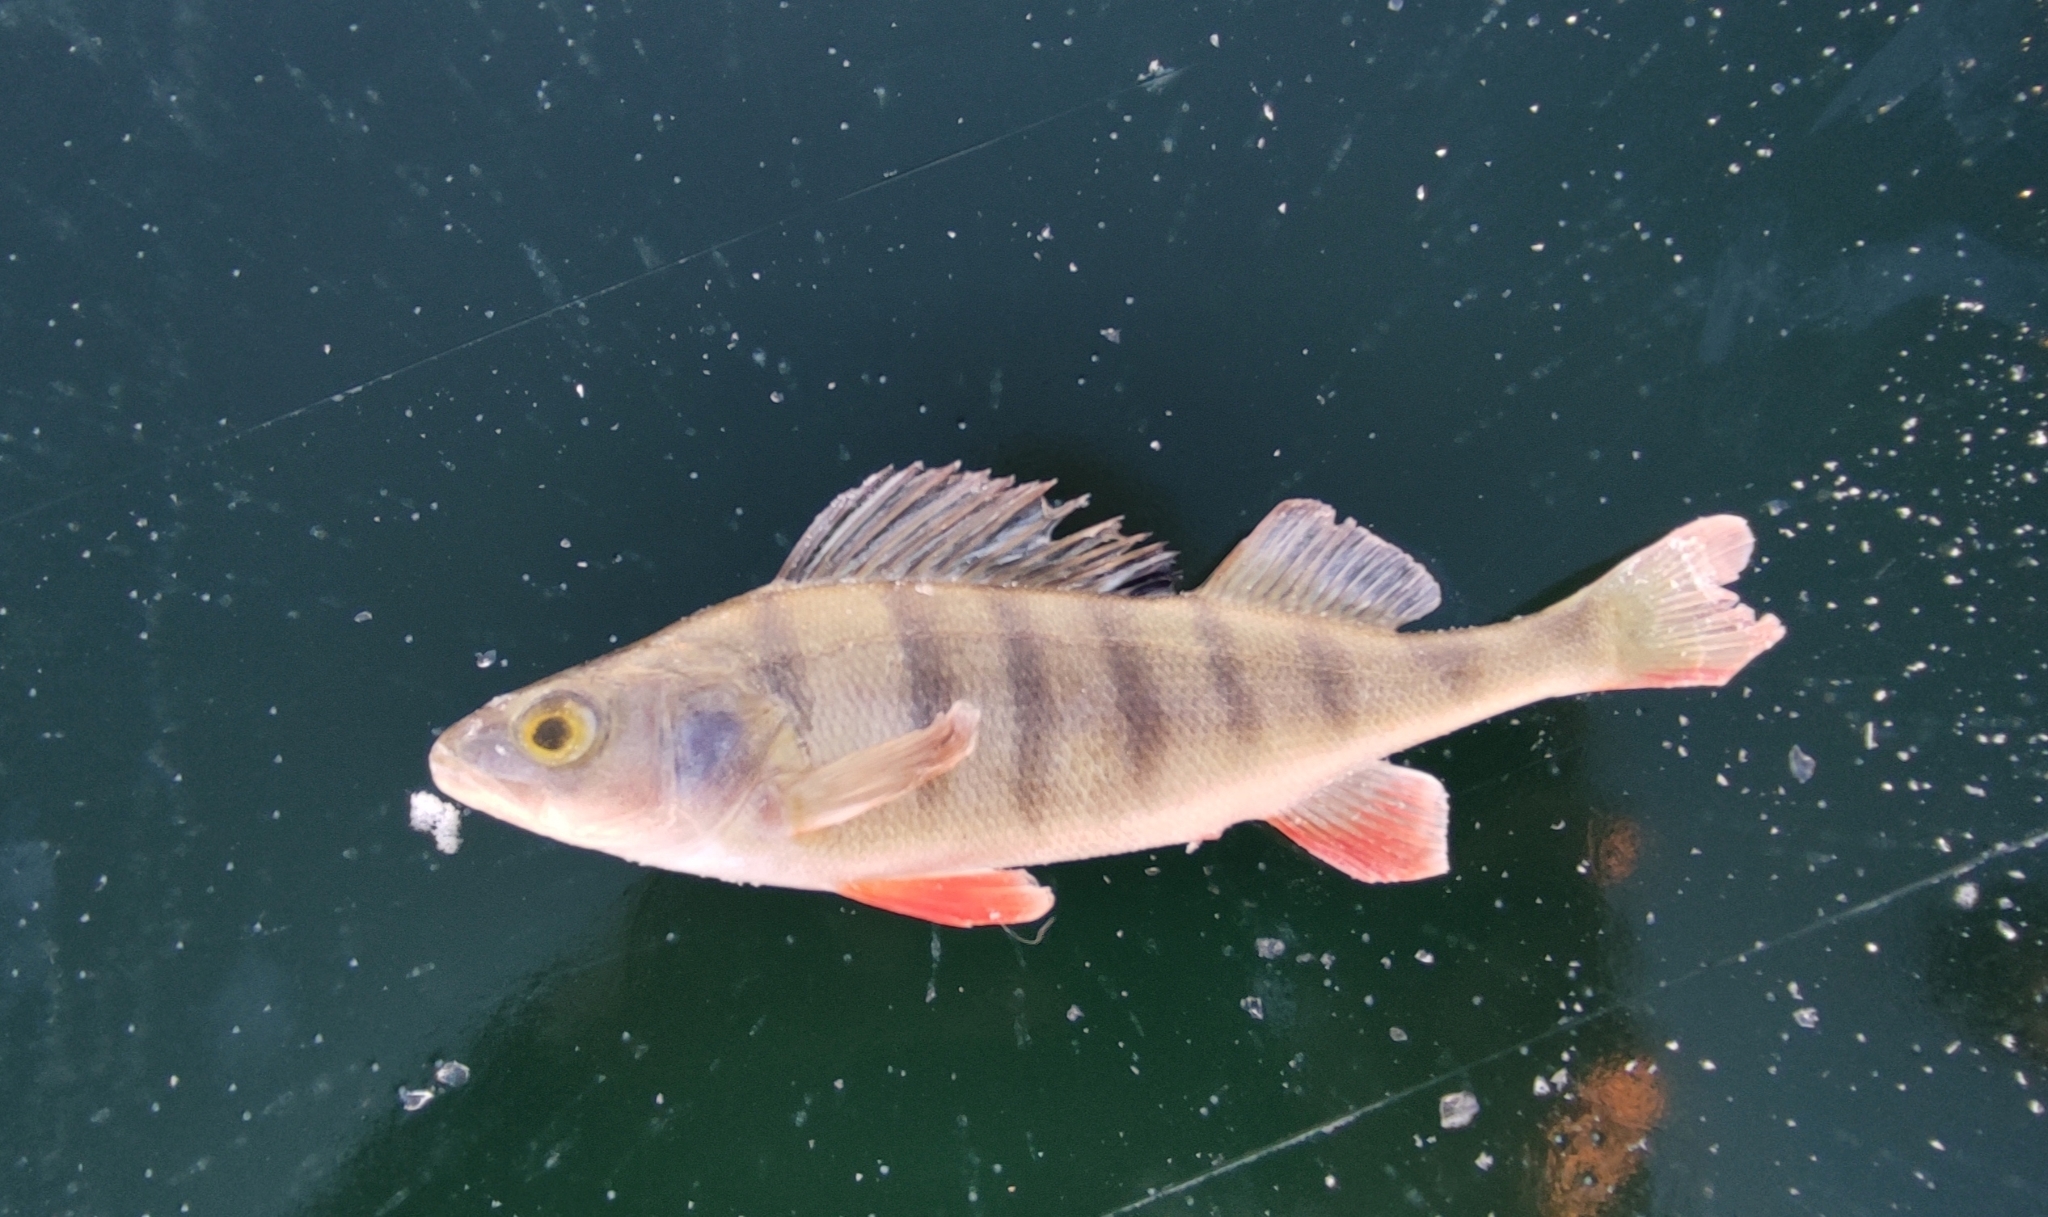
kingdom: Animalia
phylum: Chordata
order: Perciformes
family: Percidae
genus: Perca
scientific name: Perca fluviatilis
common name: Perch
